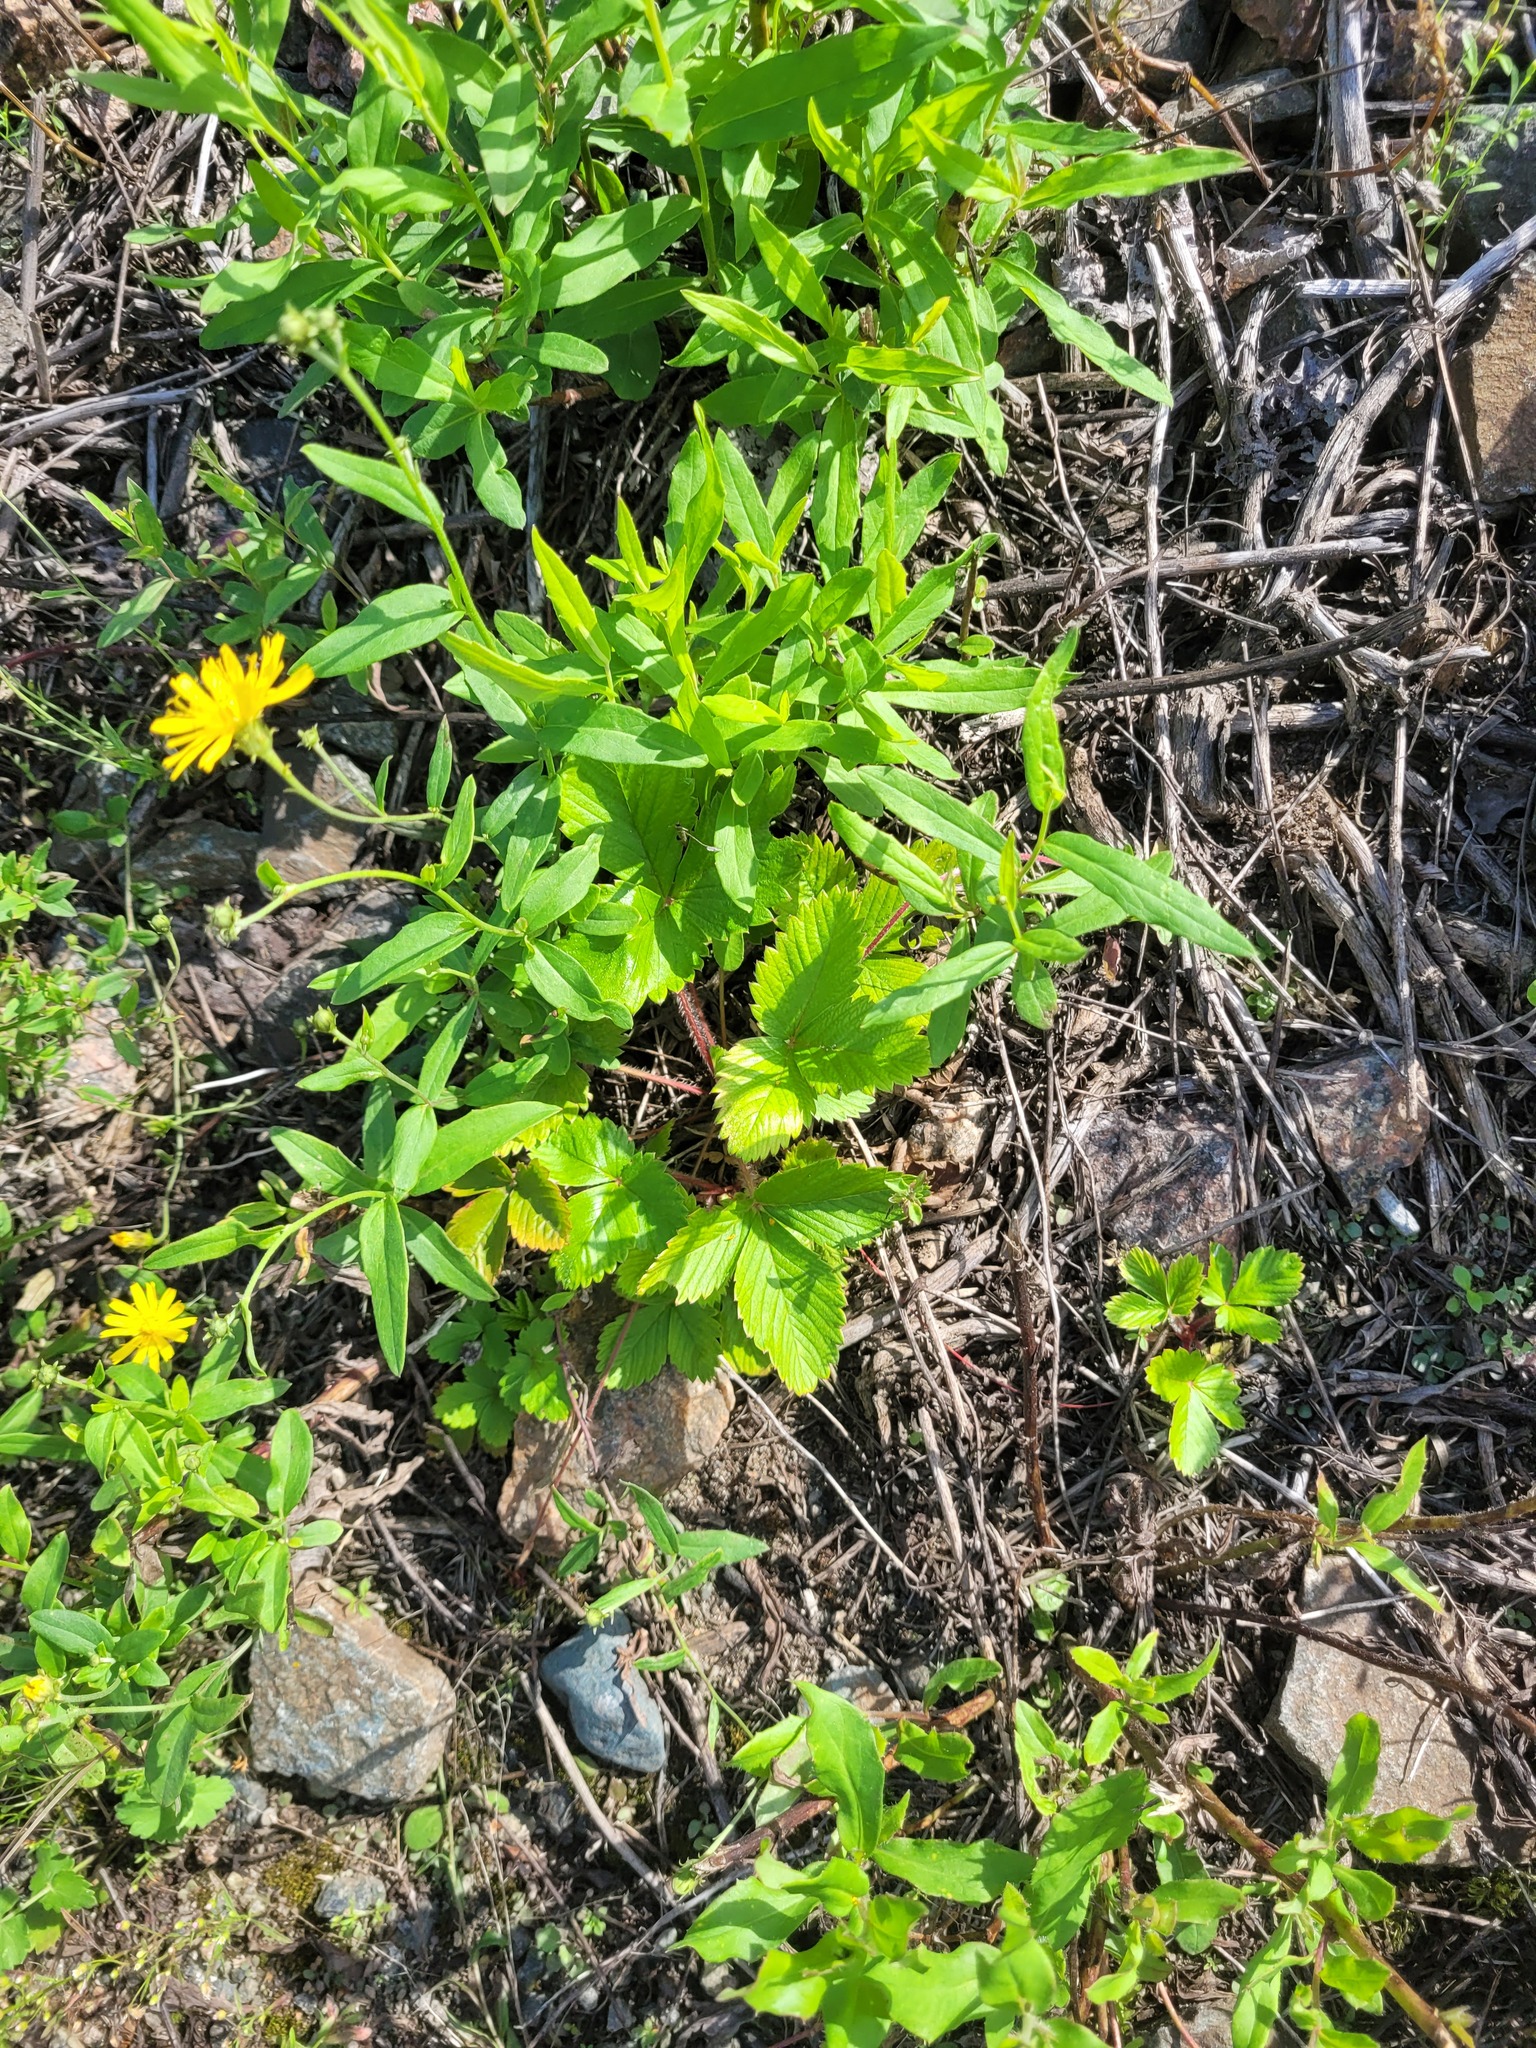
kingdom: Plantae
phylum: Tracheophyta
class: Magnoliopsida
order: Rosales
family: Rosaceae
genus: Fragaria
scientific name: Fragaria vesca
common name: Wild strawberry
